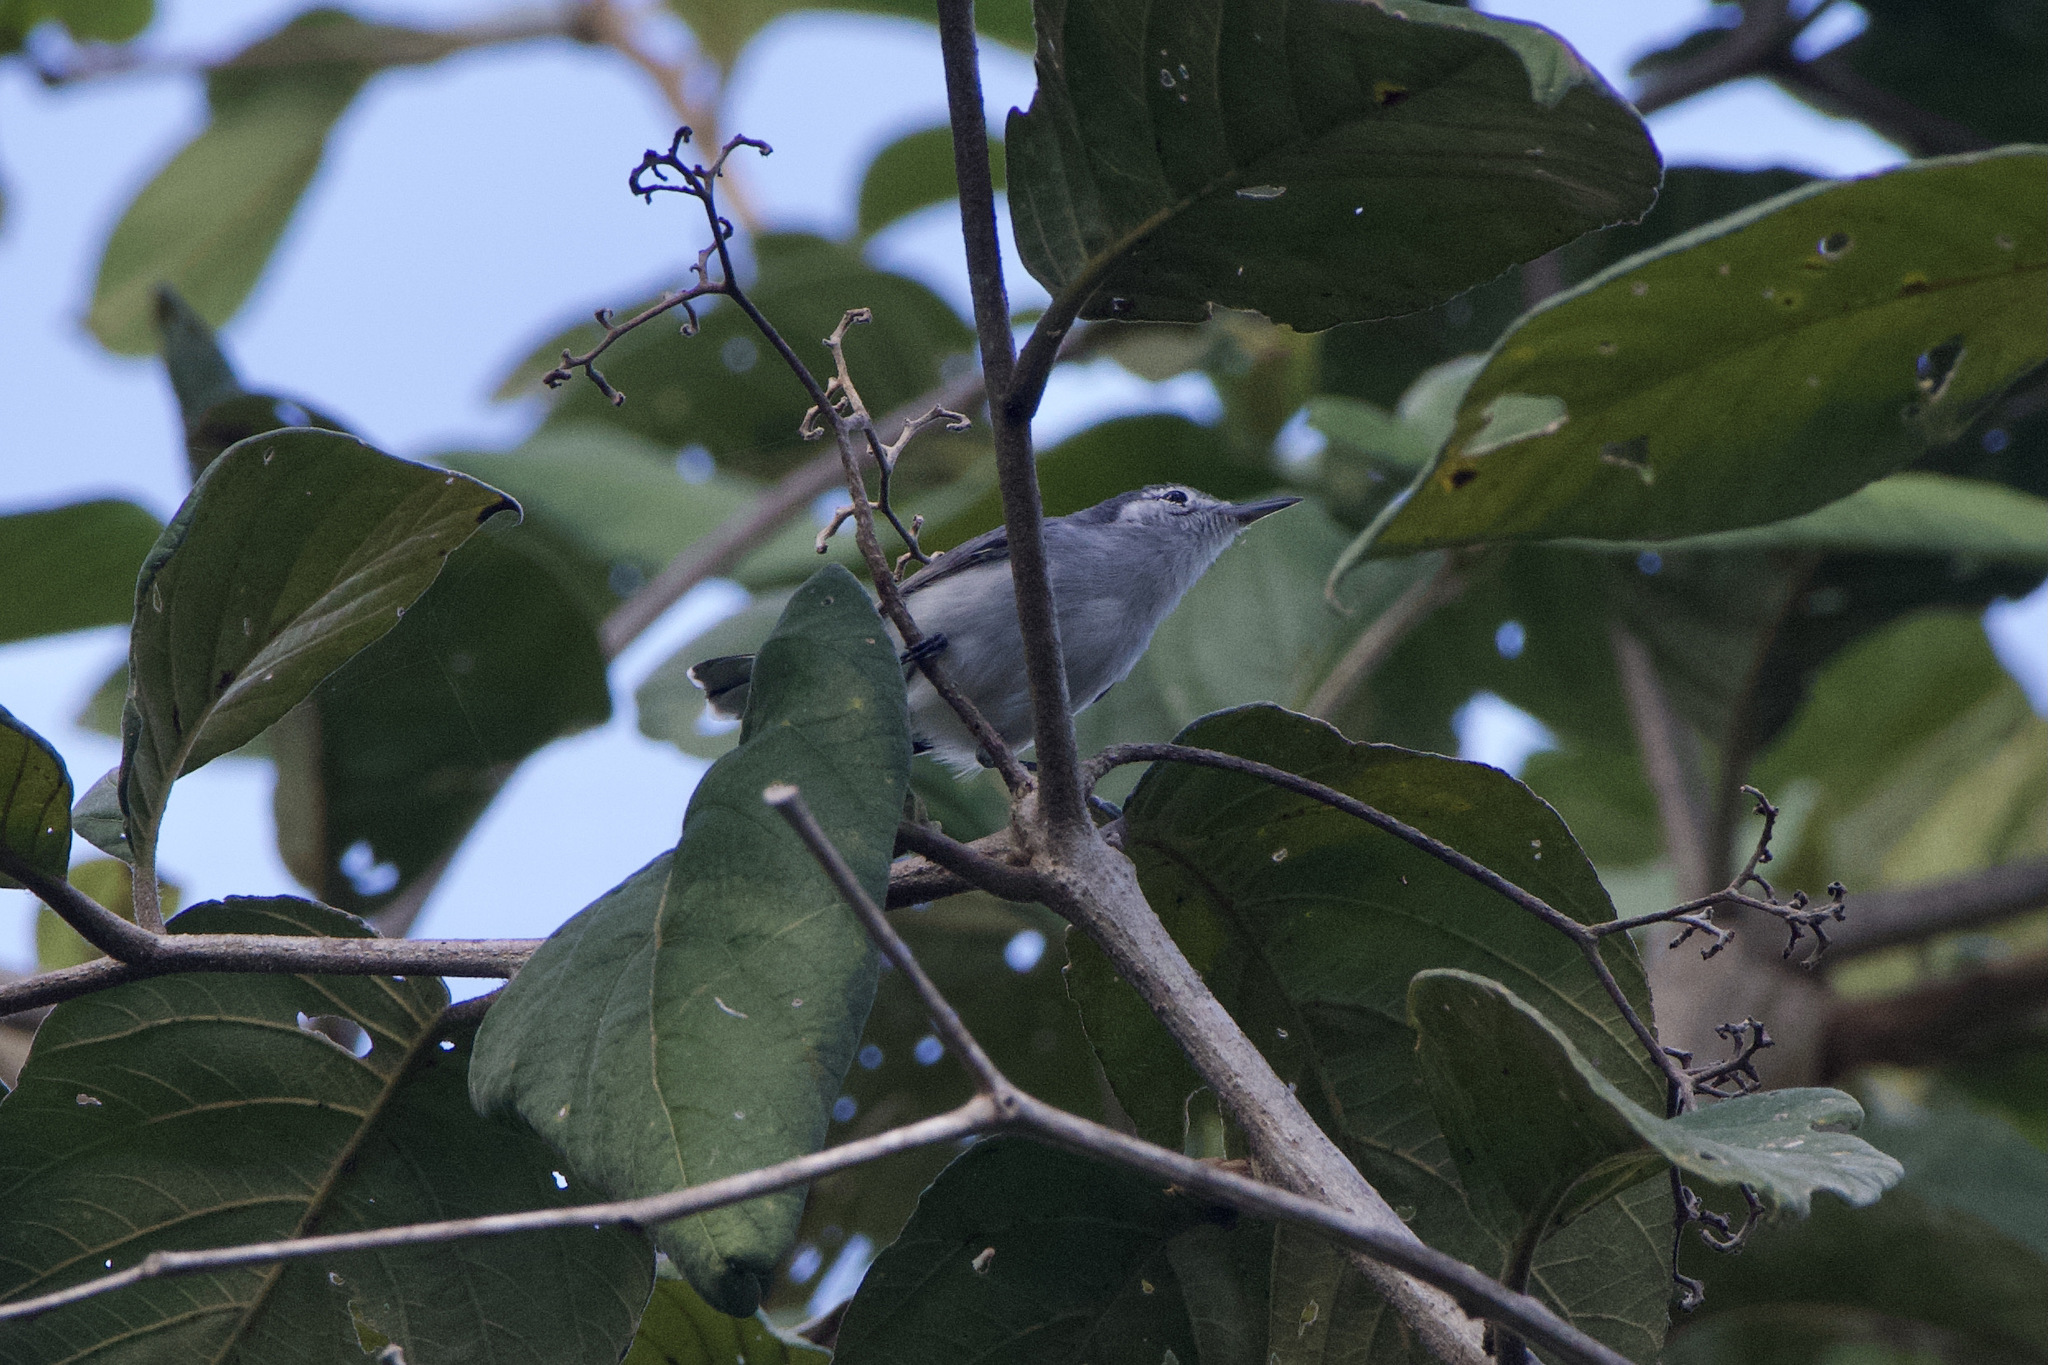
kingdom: Animalia
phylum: Chordata
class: Aves
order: Passeriformes
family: Polioptilidae
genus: Polioptila
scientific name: Polioptila plumbea
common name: Tropical gnatcatcher
